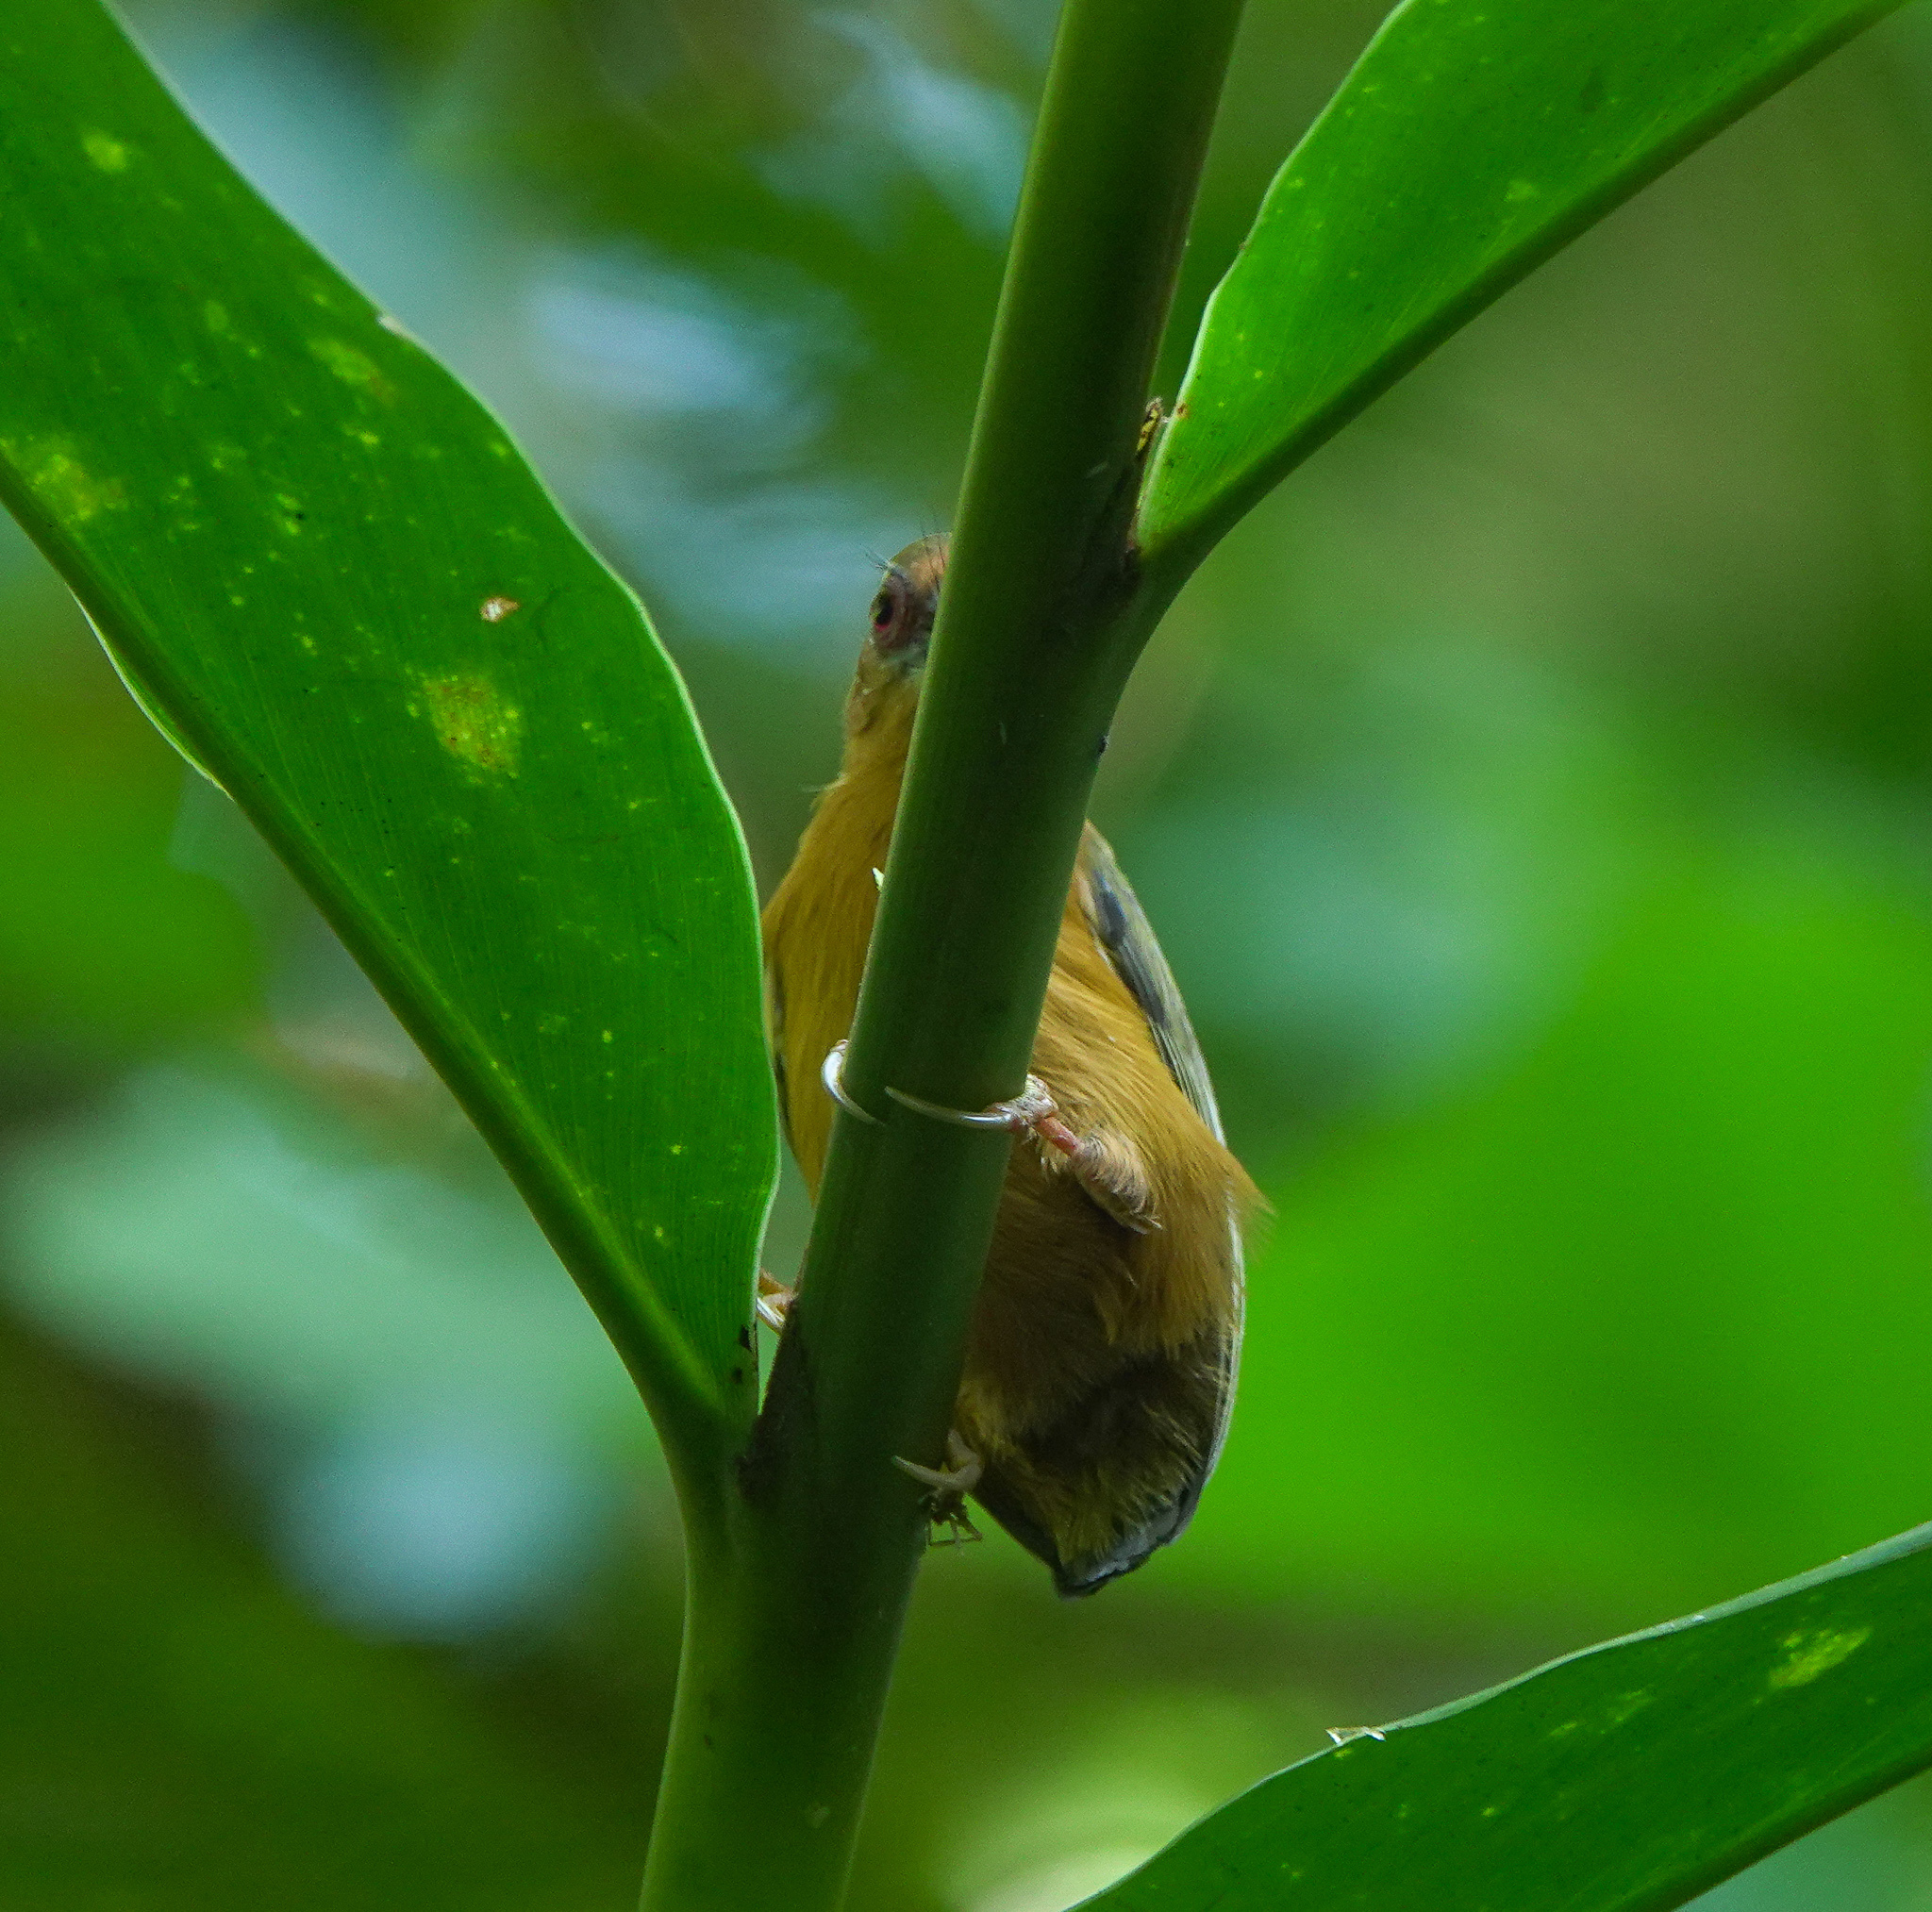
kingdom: Animalia
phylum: Chordata
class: Aves
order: Piciformes
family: Picidae
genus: Sasia
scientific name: Sasia ochracea
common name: White-browed piculet
